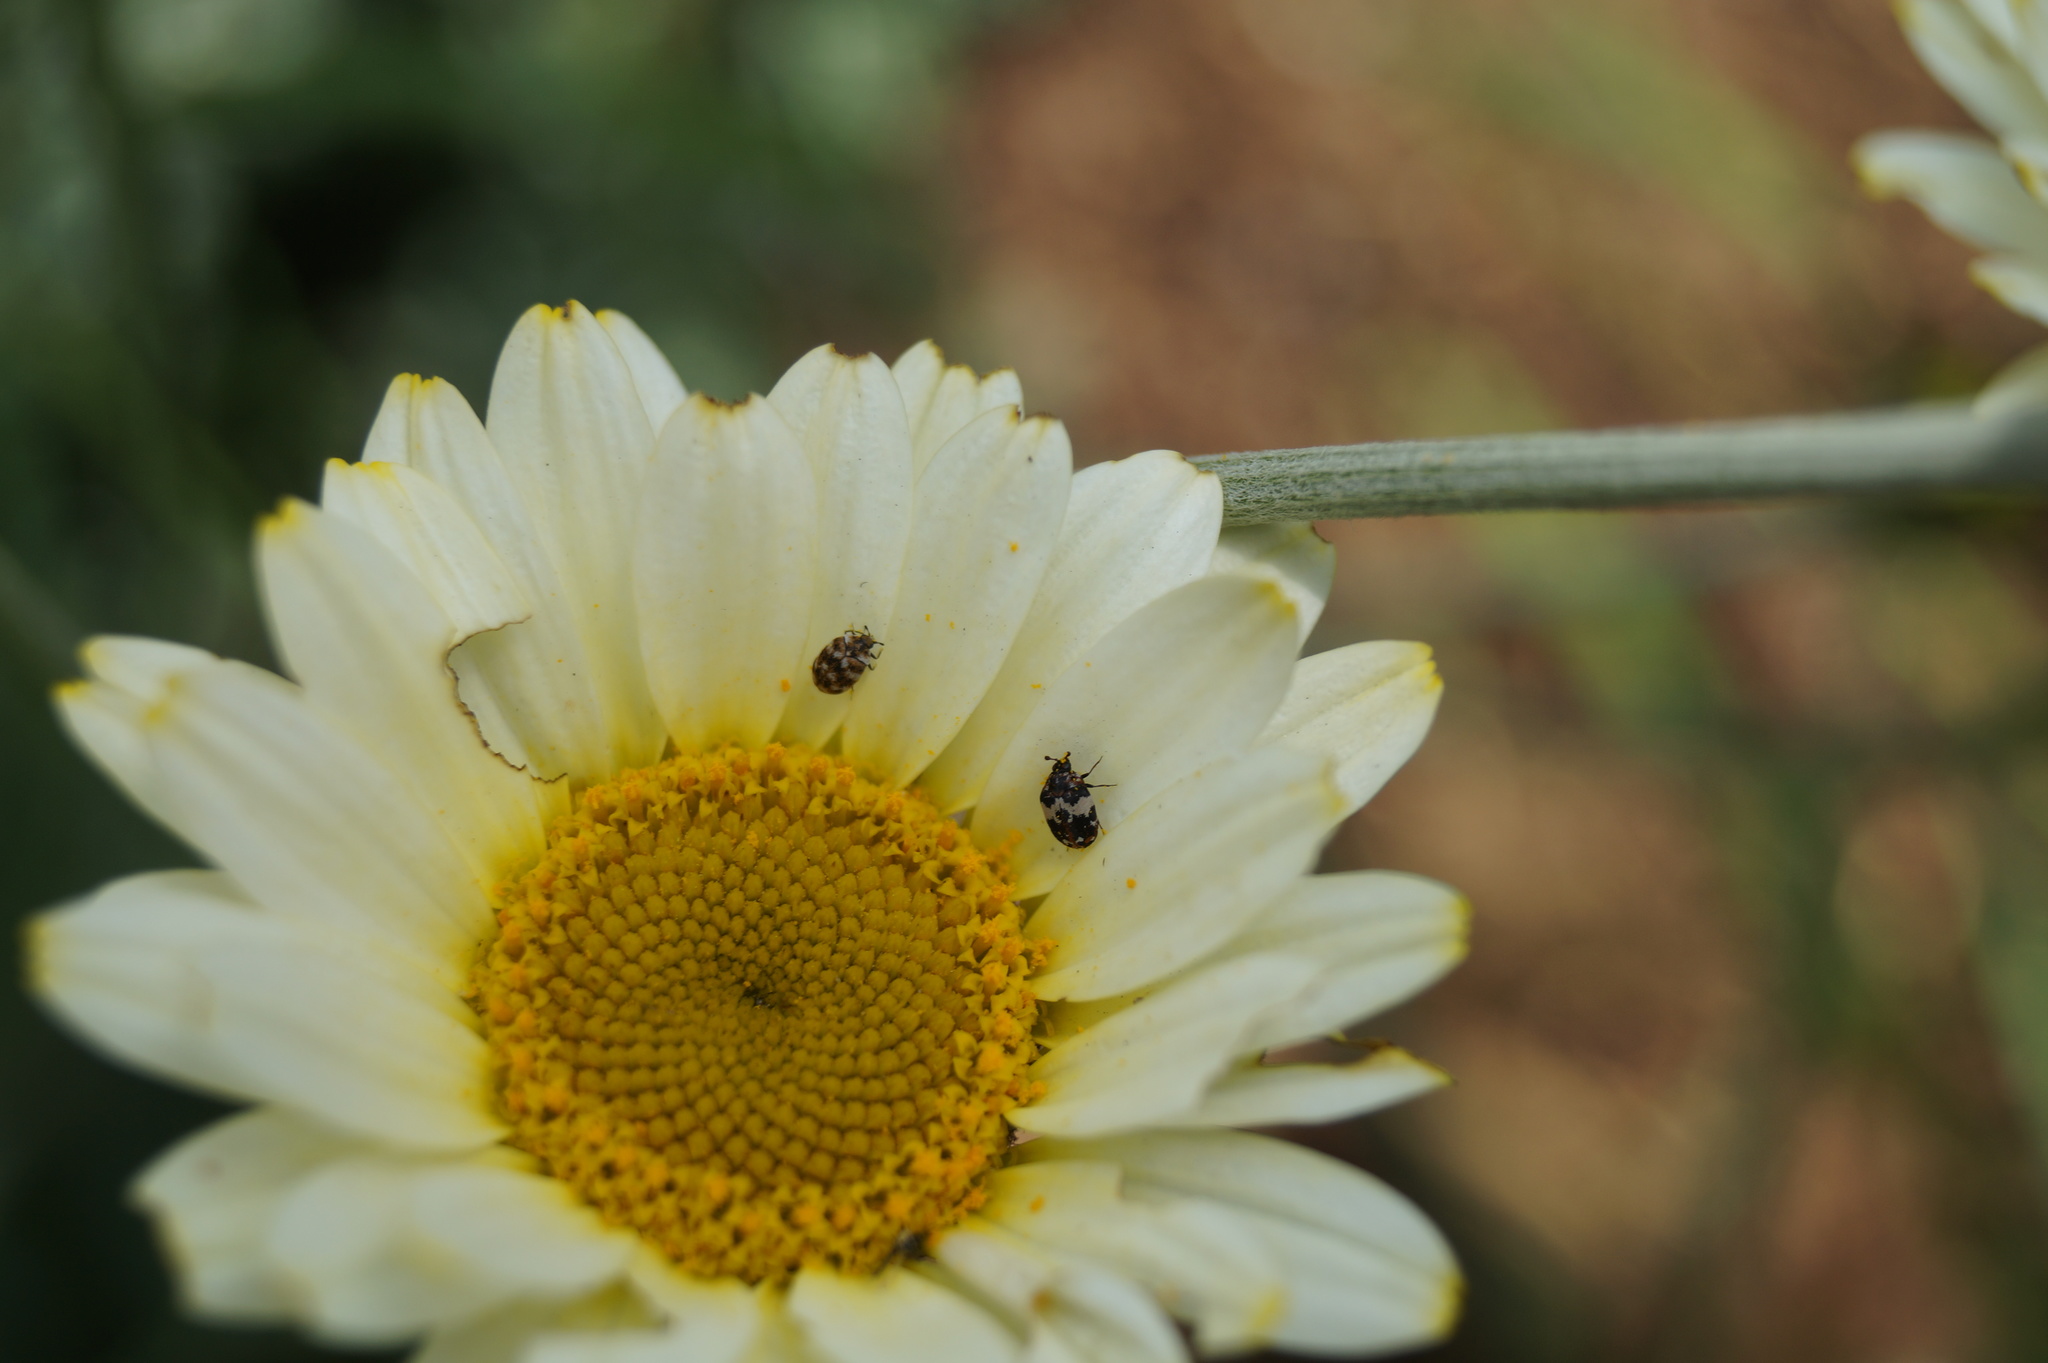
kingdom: Animalia
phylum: Arthropoda
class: Insecta
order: Coleoptera
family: Dermestidae
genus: Anthrenus
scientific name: Anthrenus pimpinellae
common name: Dermestid beetle
